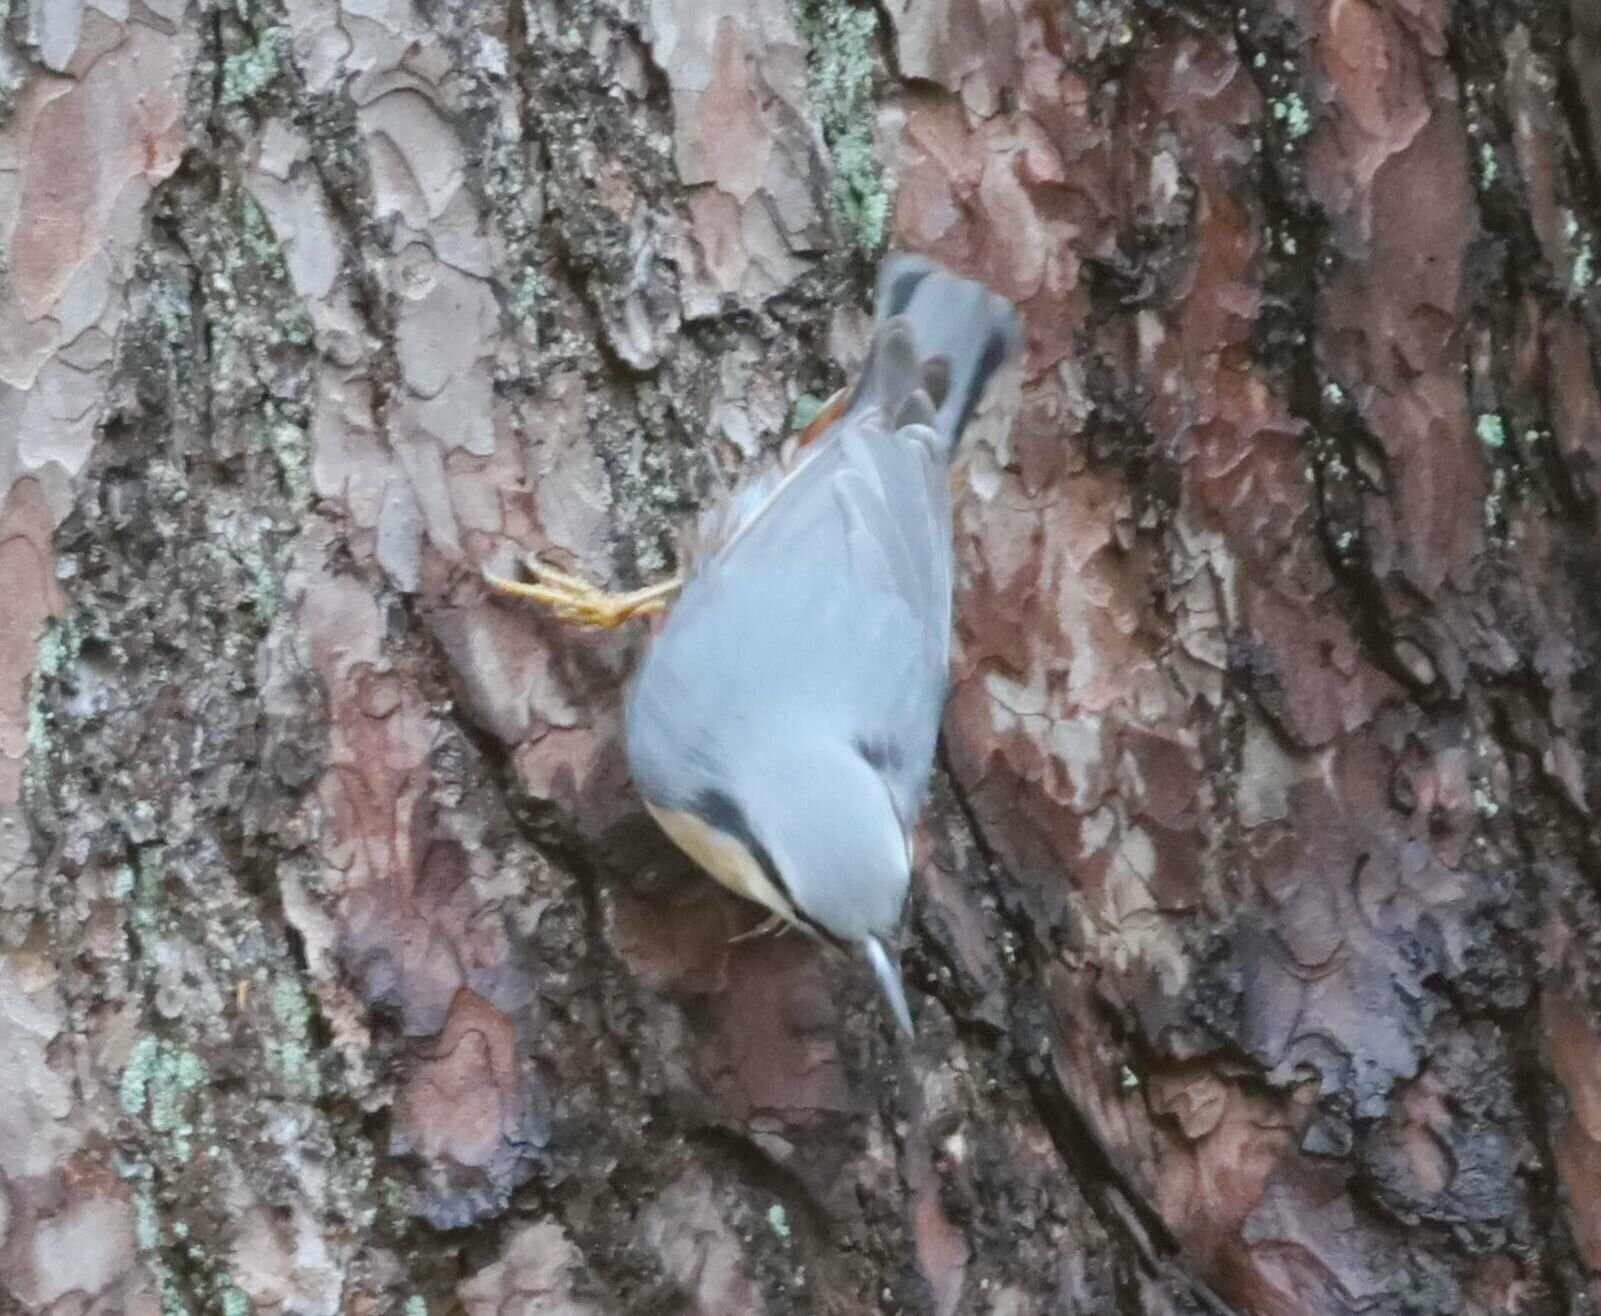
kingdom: Animalia
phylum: Chordata
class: Aves
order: Passeriformes
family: Sittidae
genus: Sitta
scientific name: Sitta europaea
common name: Eurasian nuthatch
